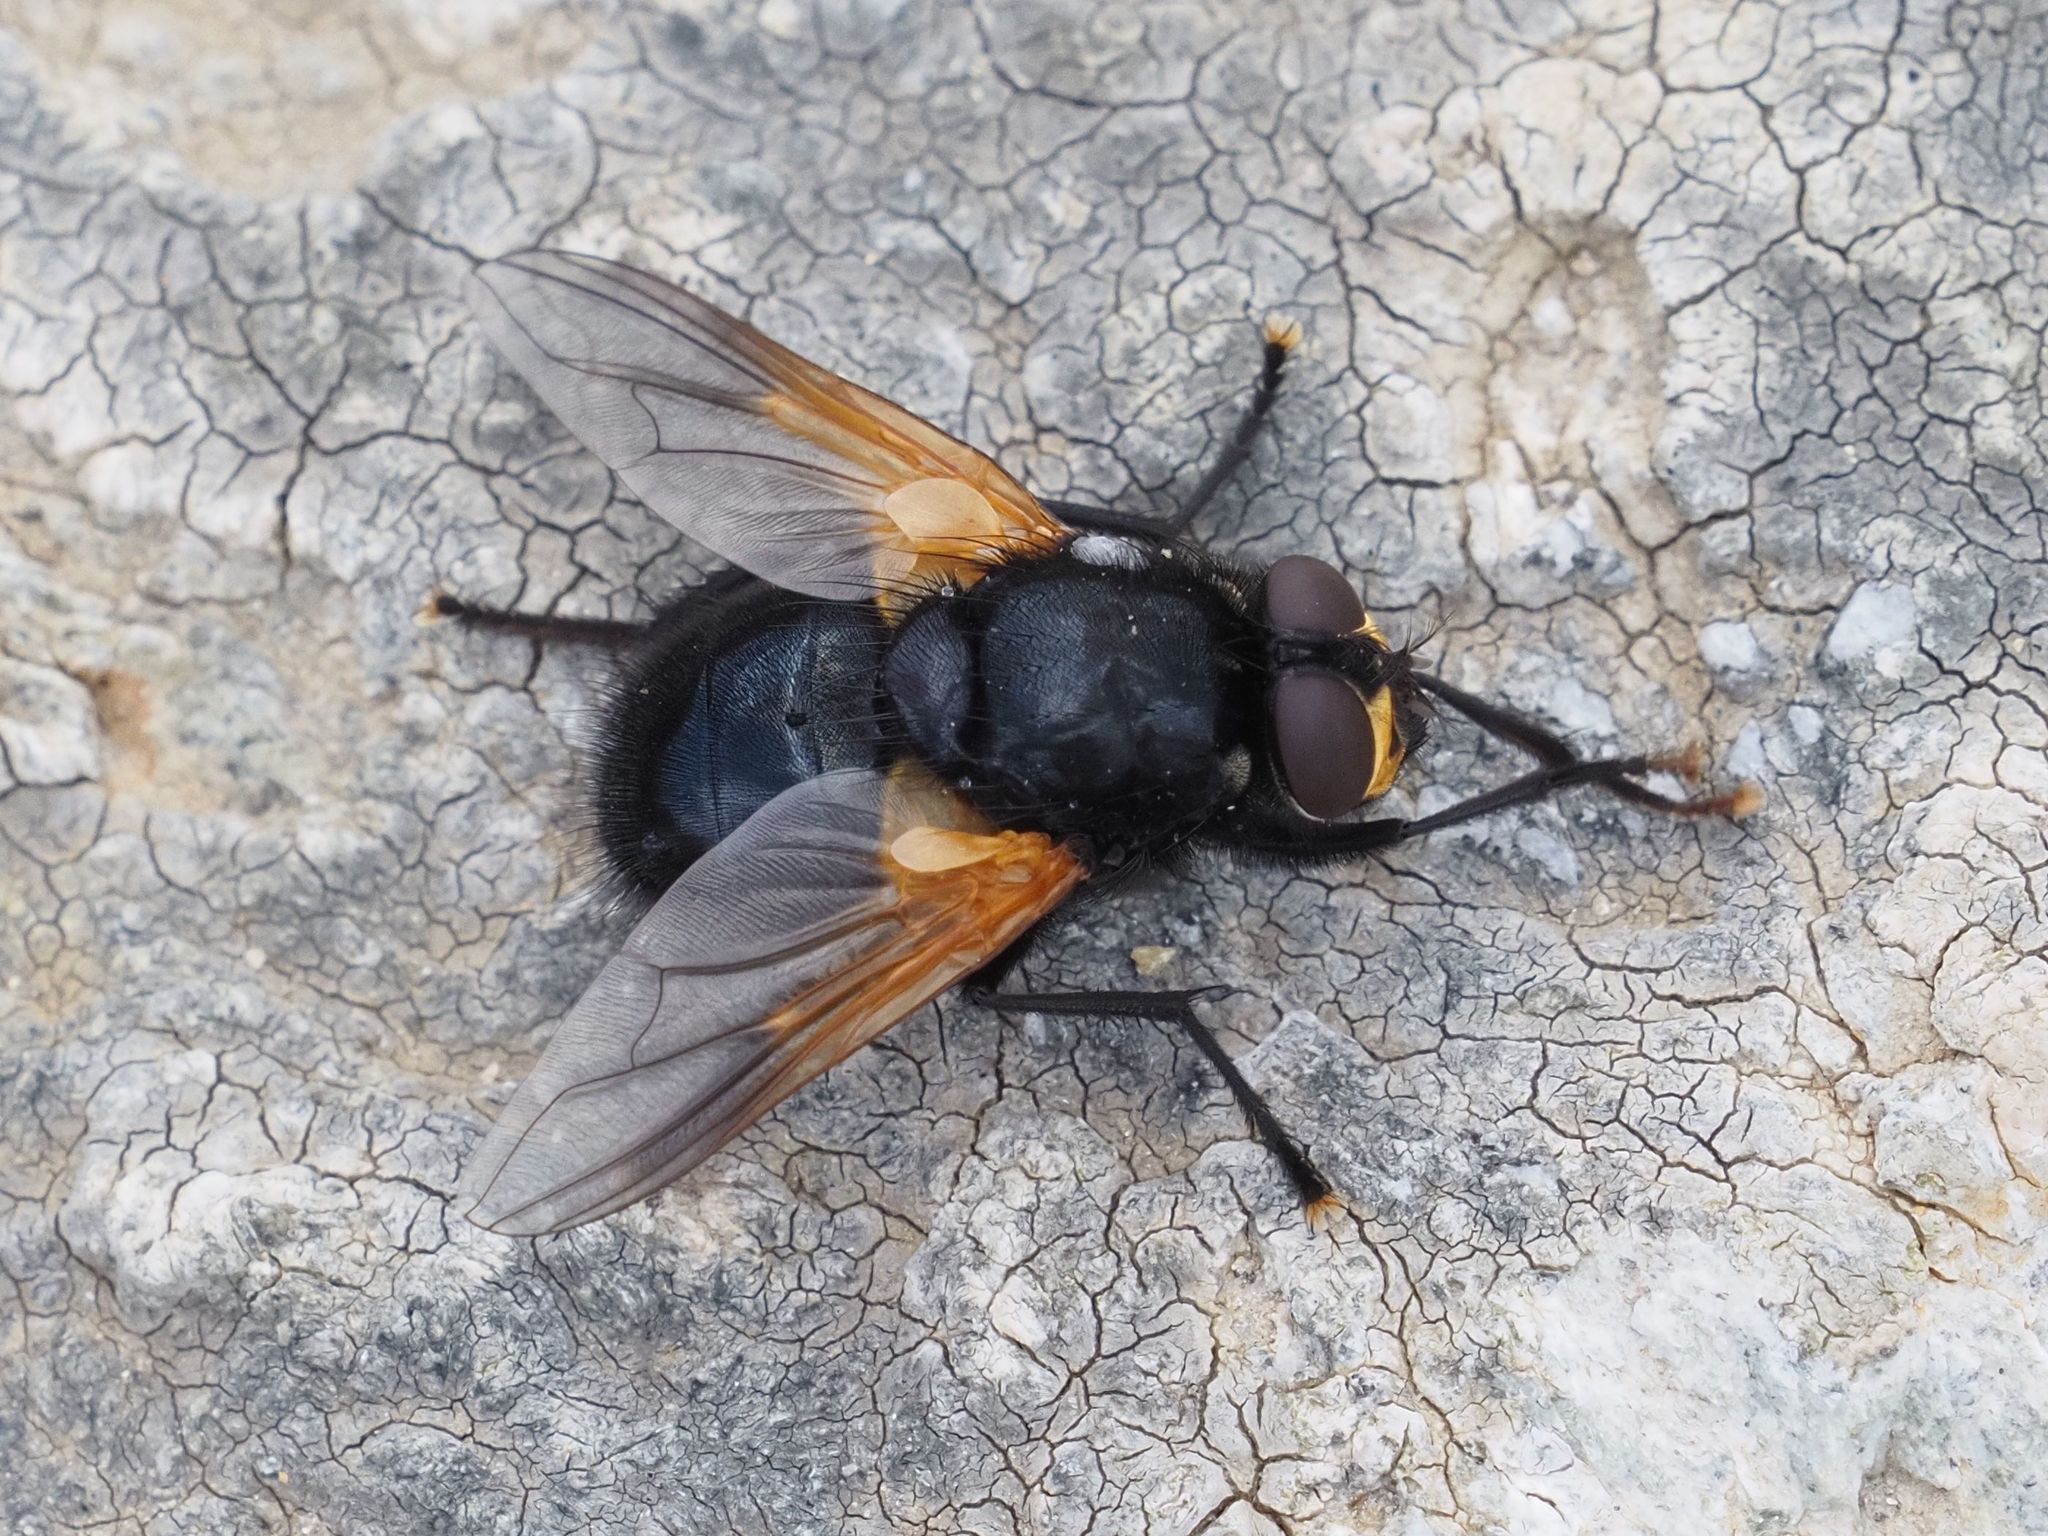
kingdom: Animalia
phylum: Arthropoda
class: Insecta
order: Diptera
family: Muscidae
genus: Mesembrina
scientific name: Mesembrina meridiana
